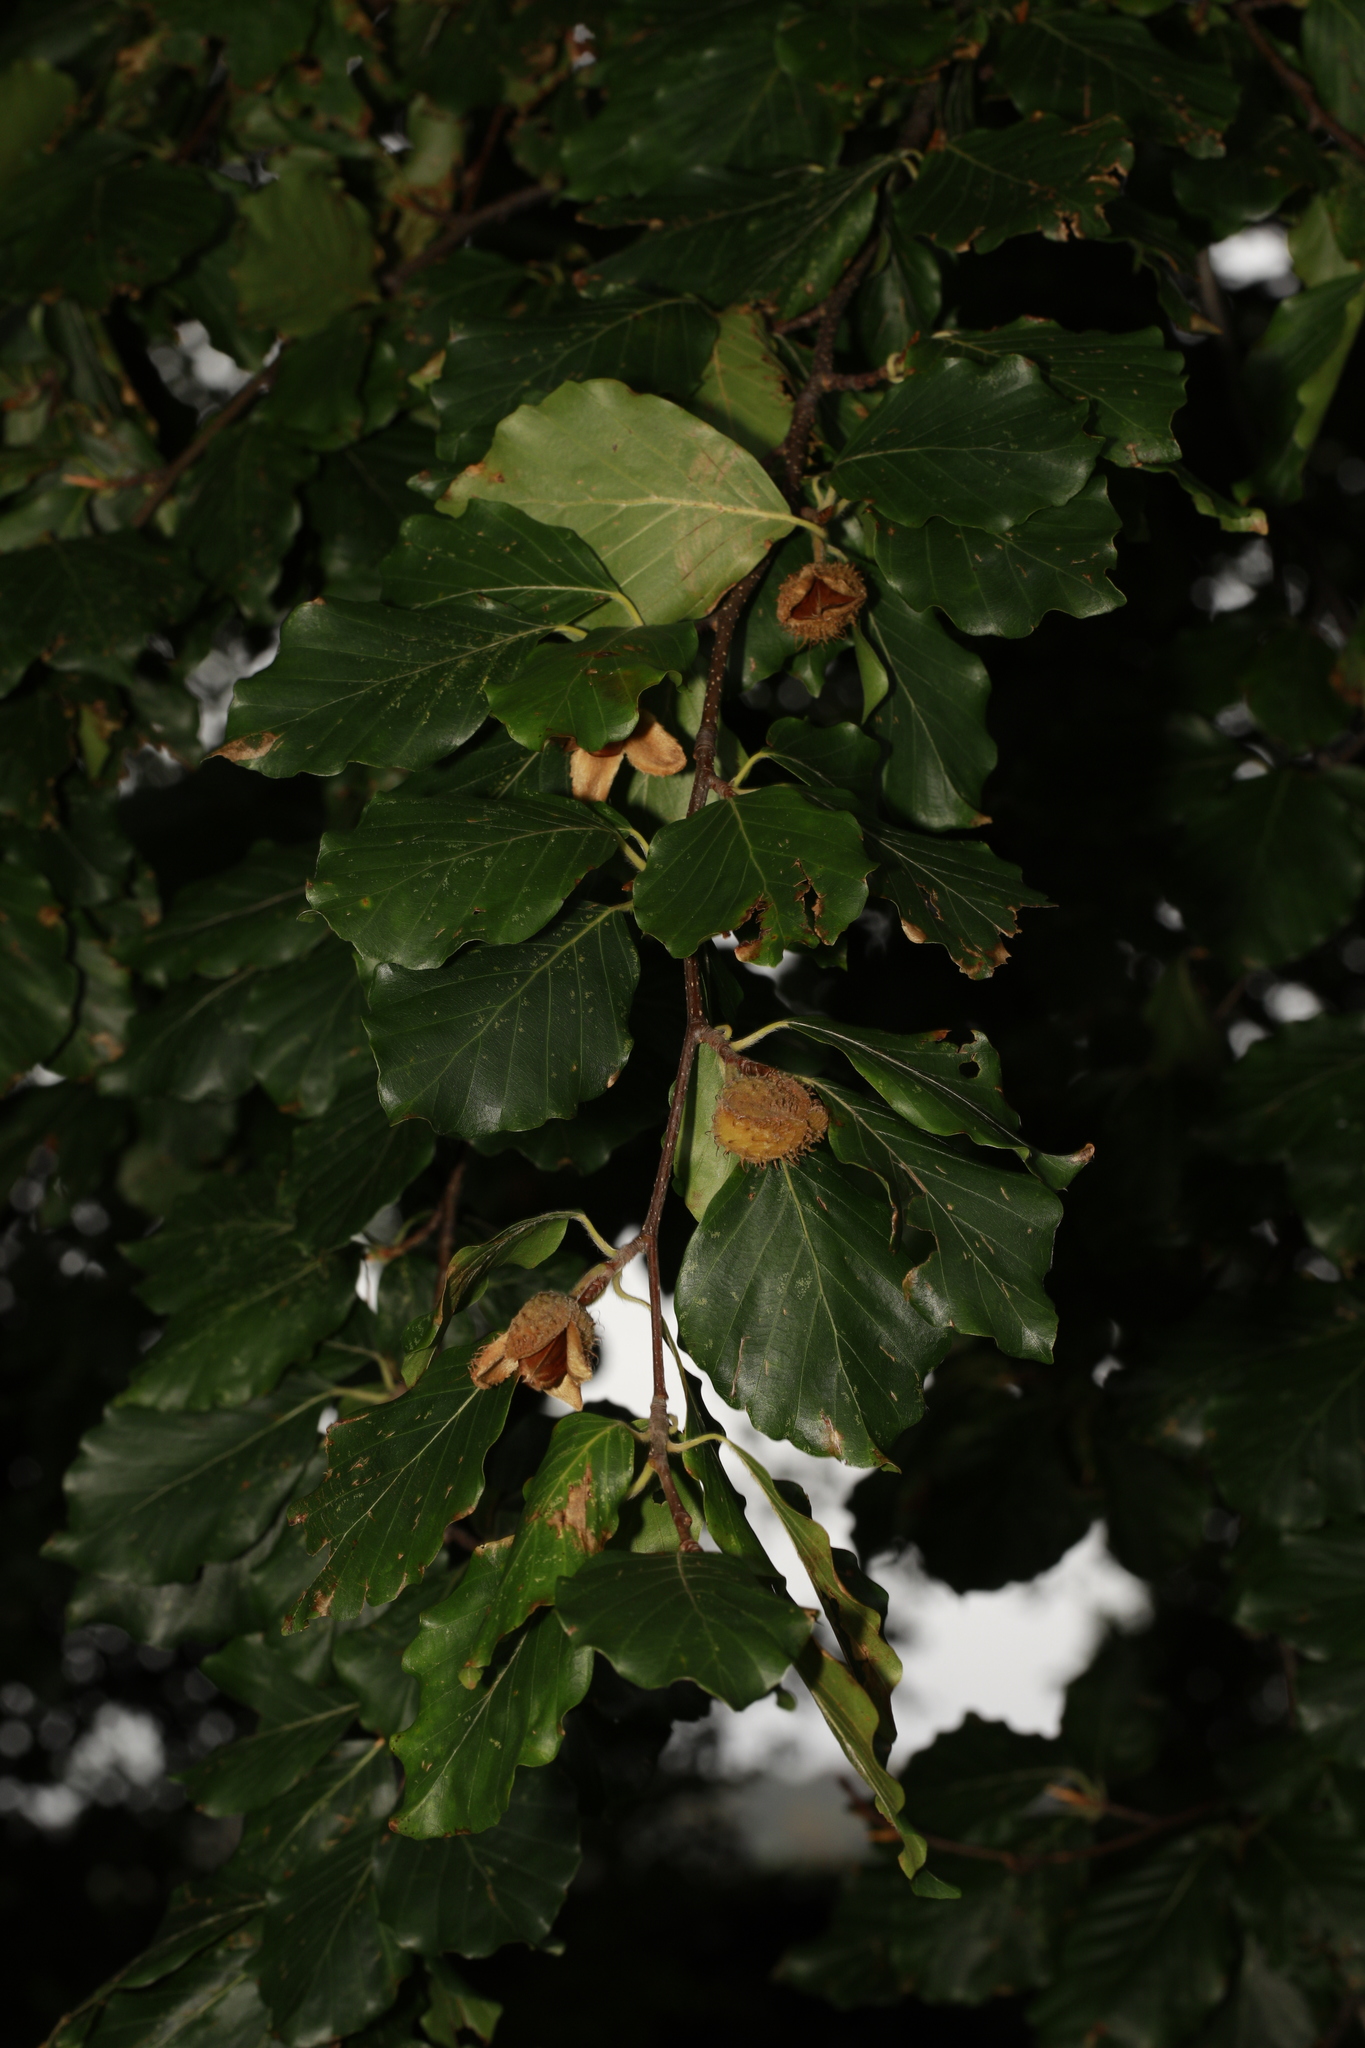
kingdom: Plantae
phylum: Tracheophyta
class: Magnoliopsida
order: Fagales
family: Fagaceae
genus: Fagus
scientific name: Fagus sylvatica
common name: Beech
